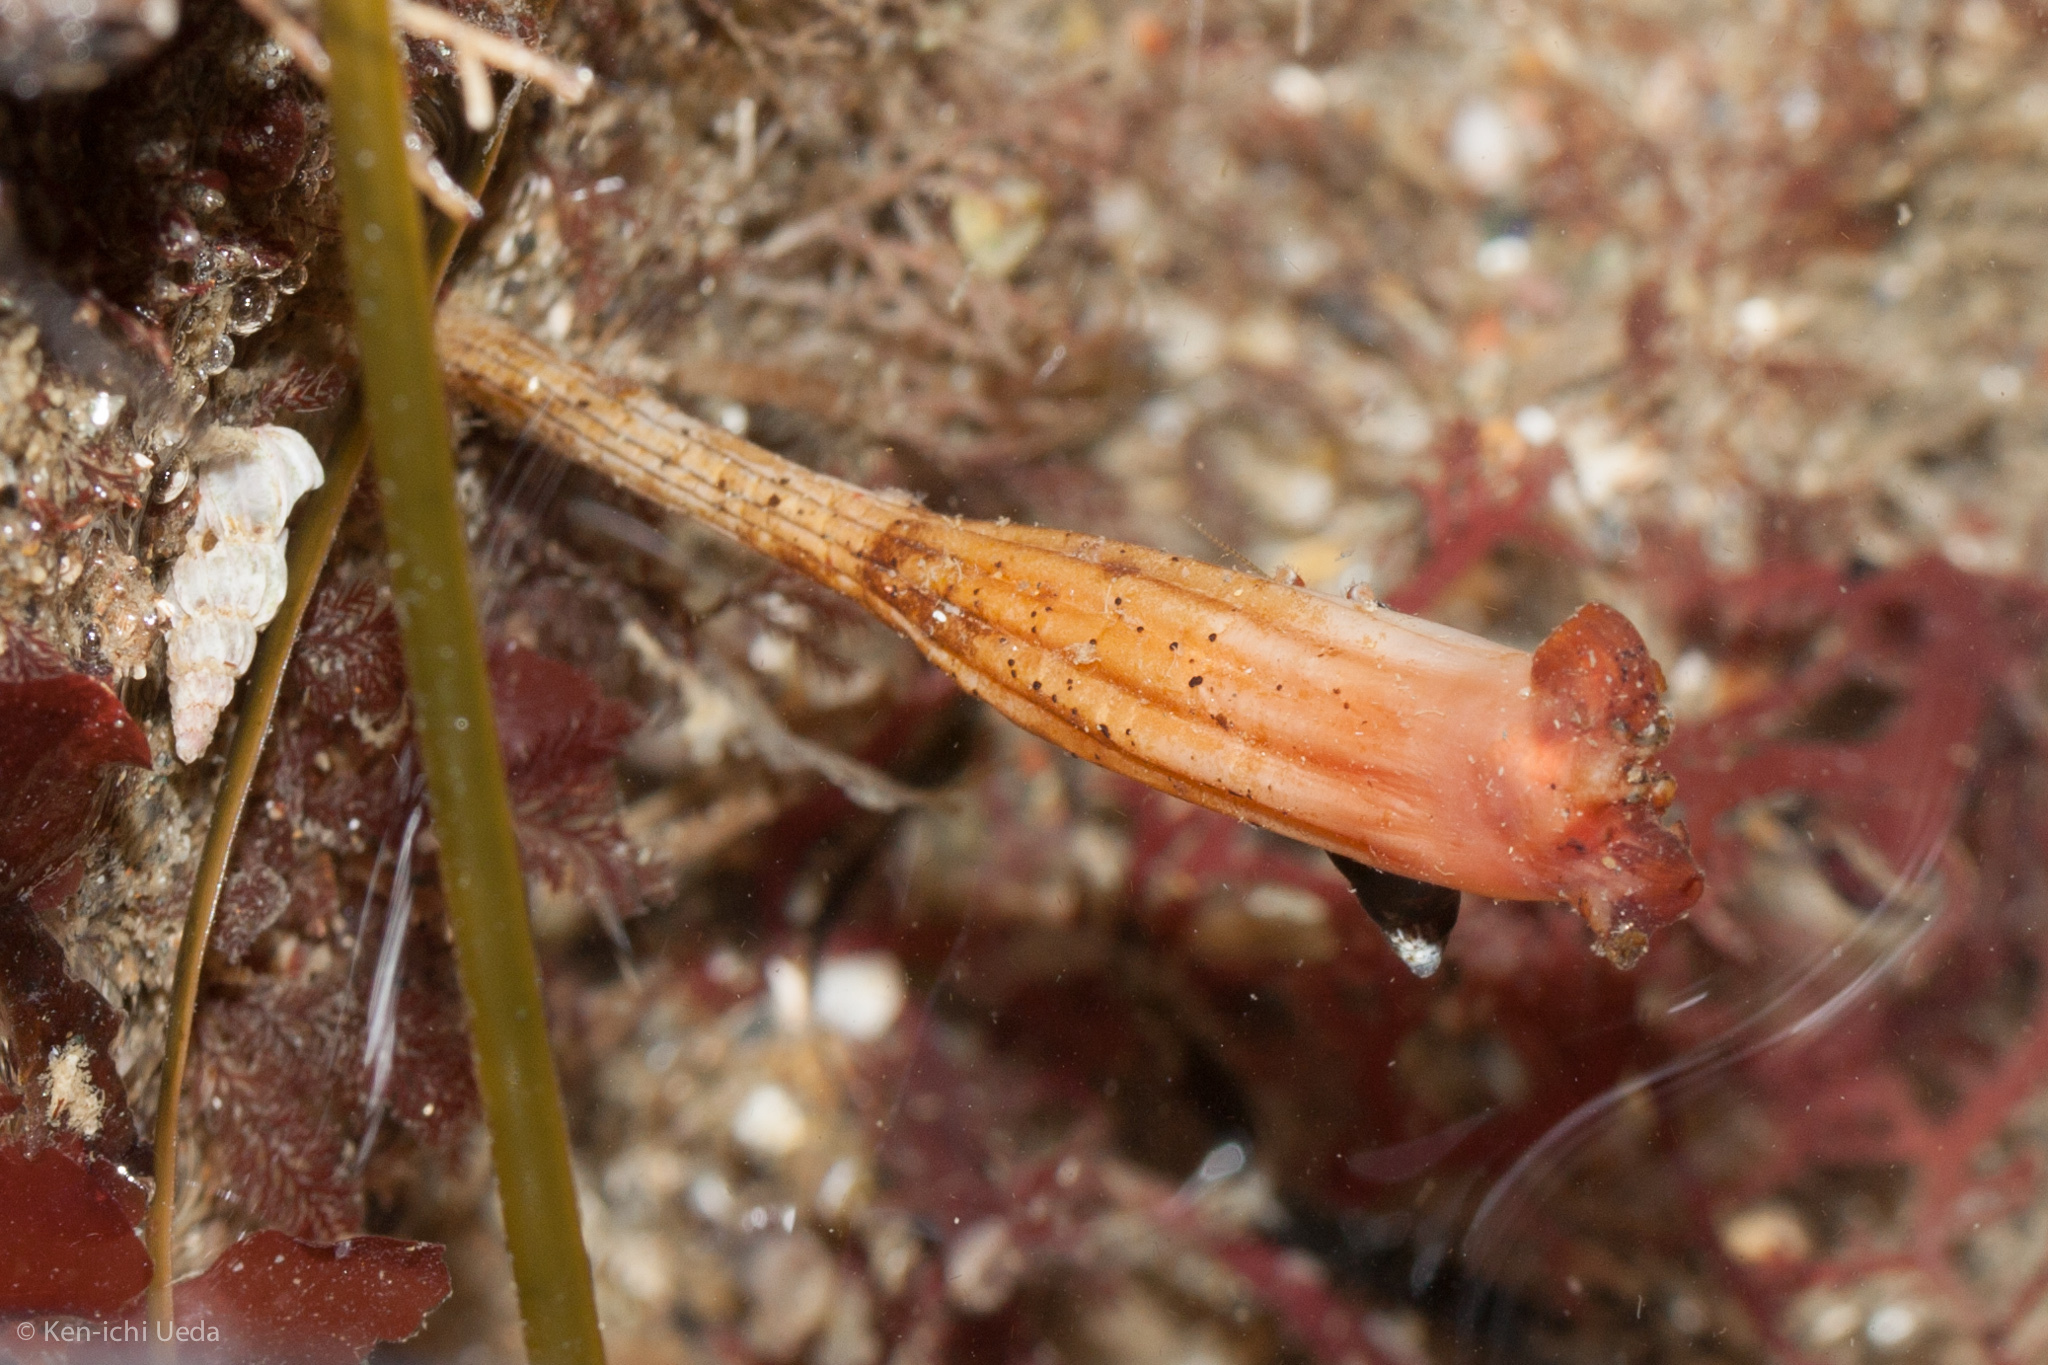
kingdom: Animalia
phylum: Chordata
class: Ascidiacea
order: Stolidobranchia
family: Styelidae
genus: Styela
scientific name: Styela montereyensis
